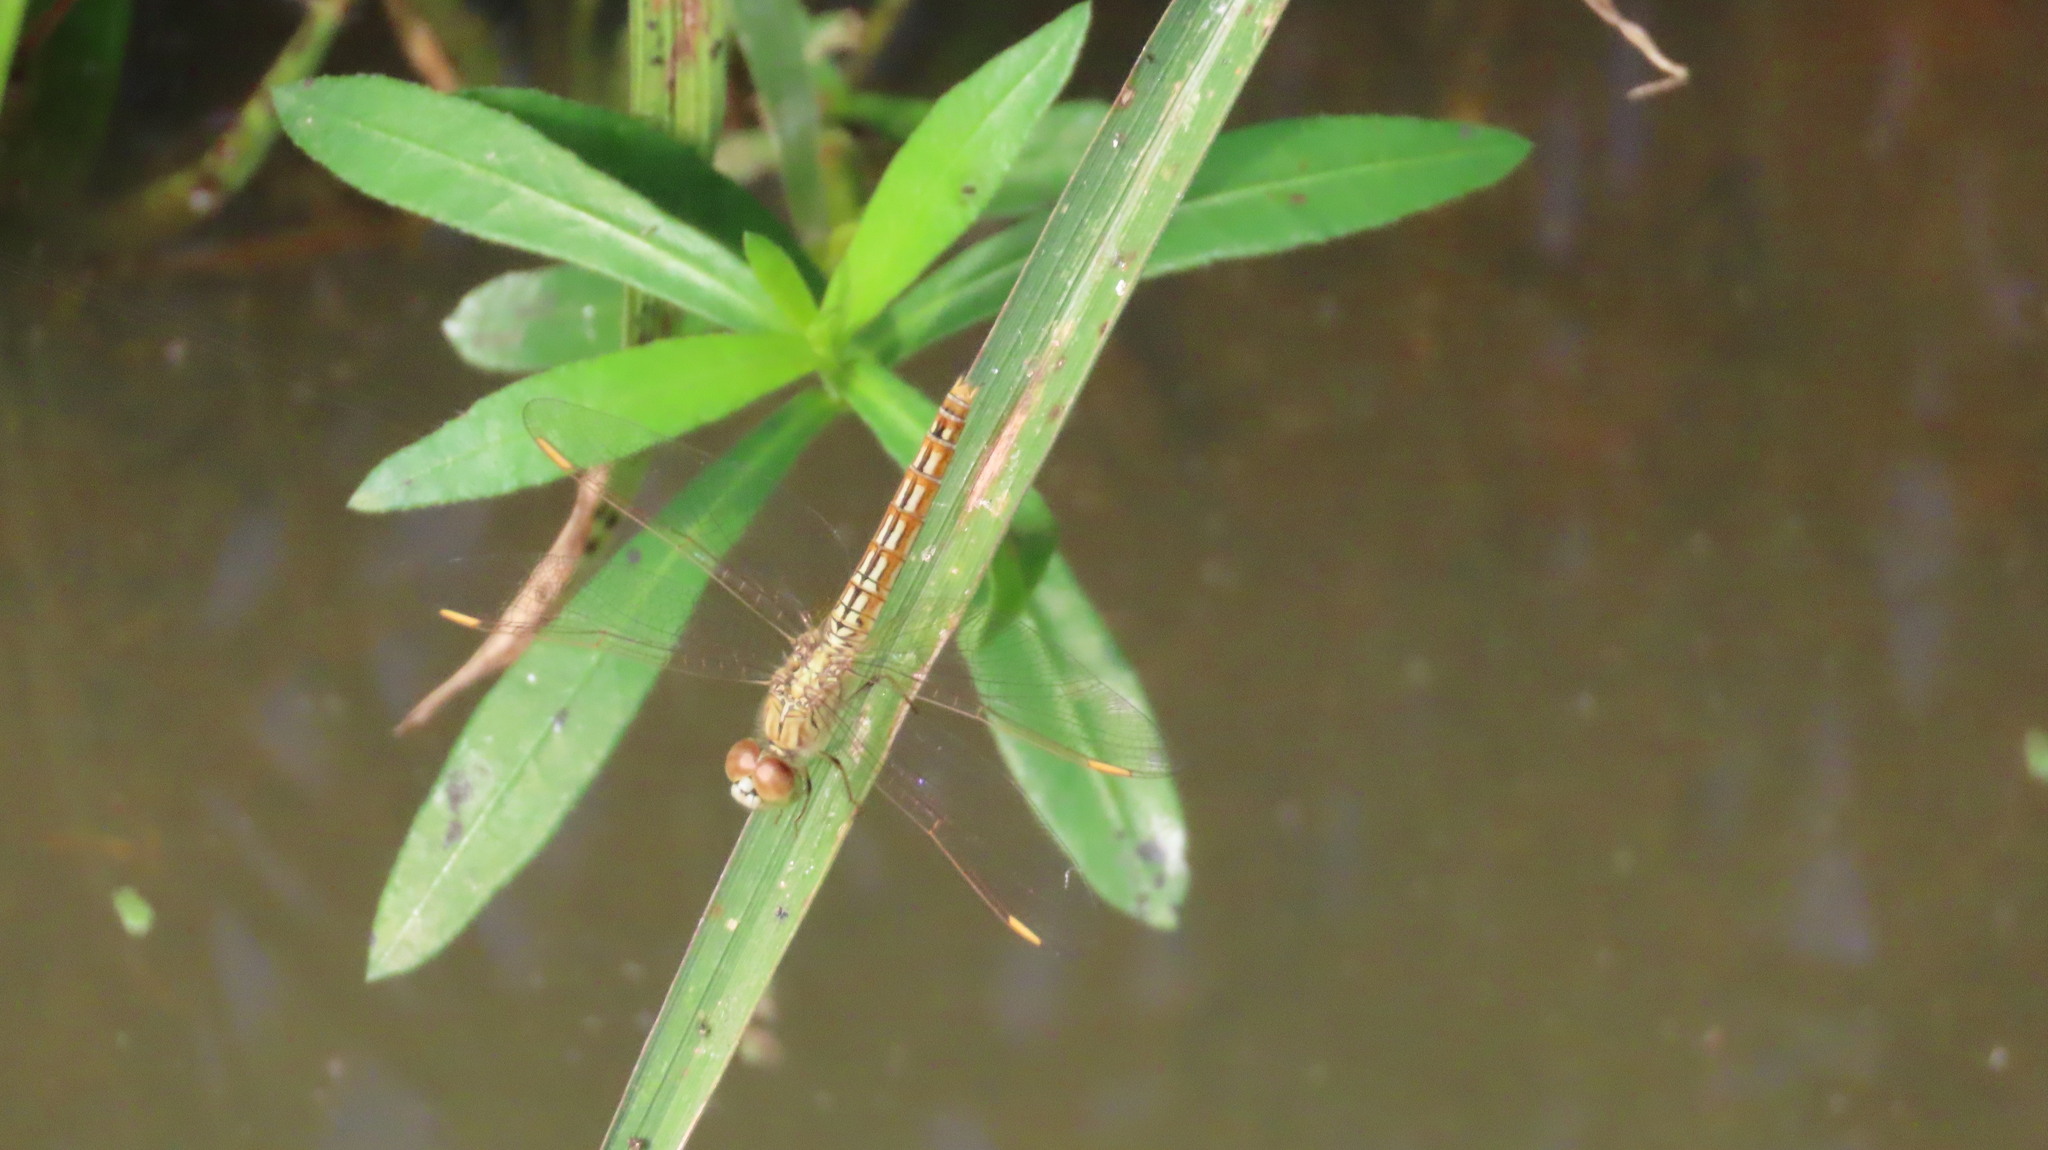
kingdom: Animalia
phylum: Arthropoda
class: Insecta
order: Odonata
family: Libellulidae
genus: Brachythemis
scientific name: Brachythemis contaminata
